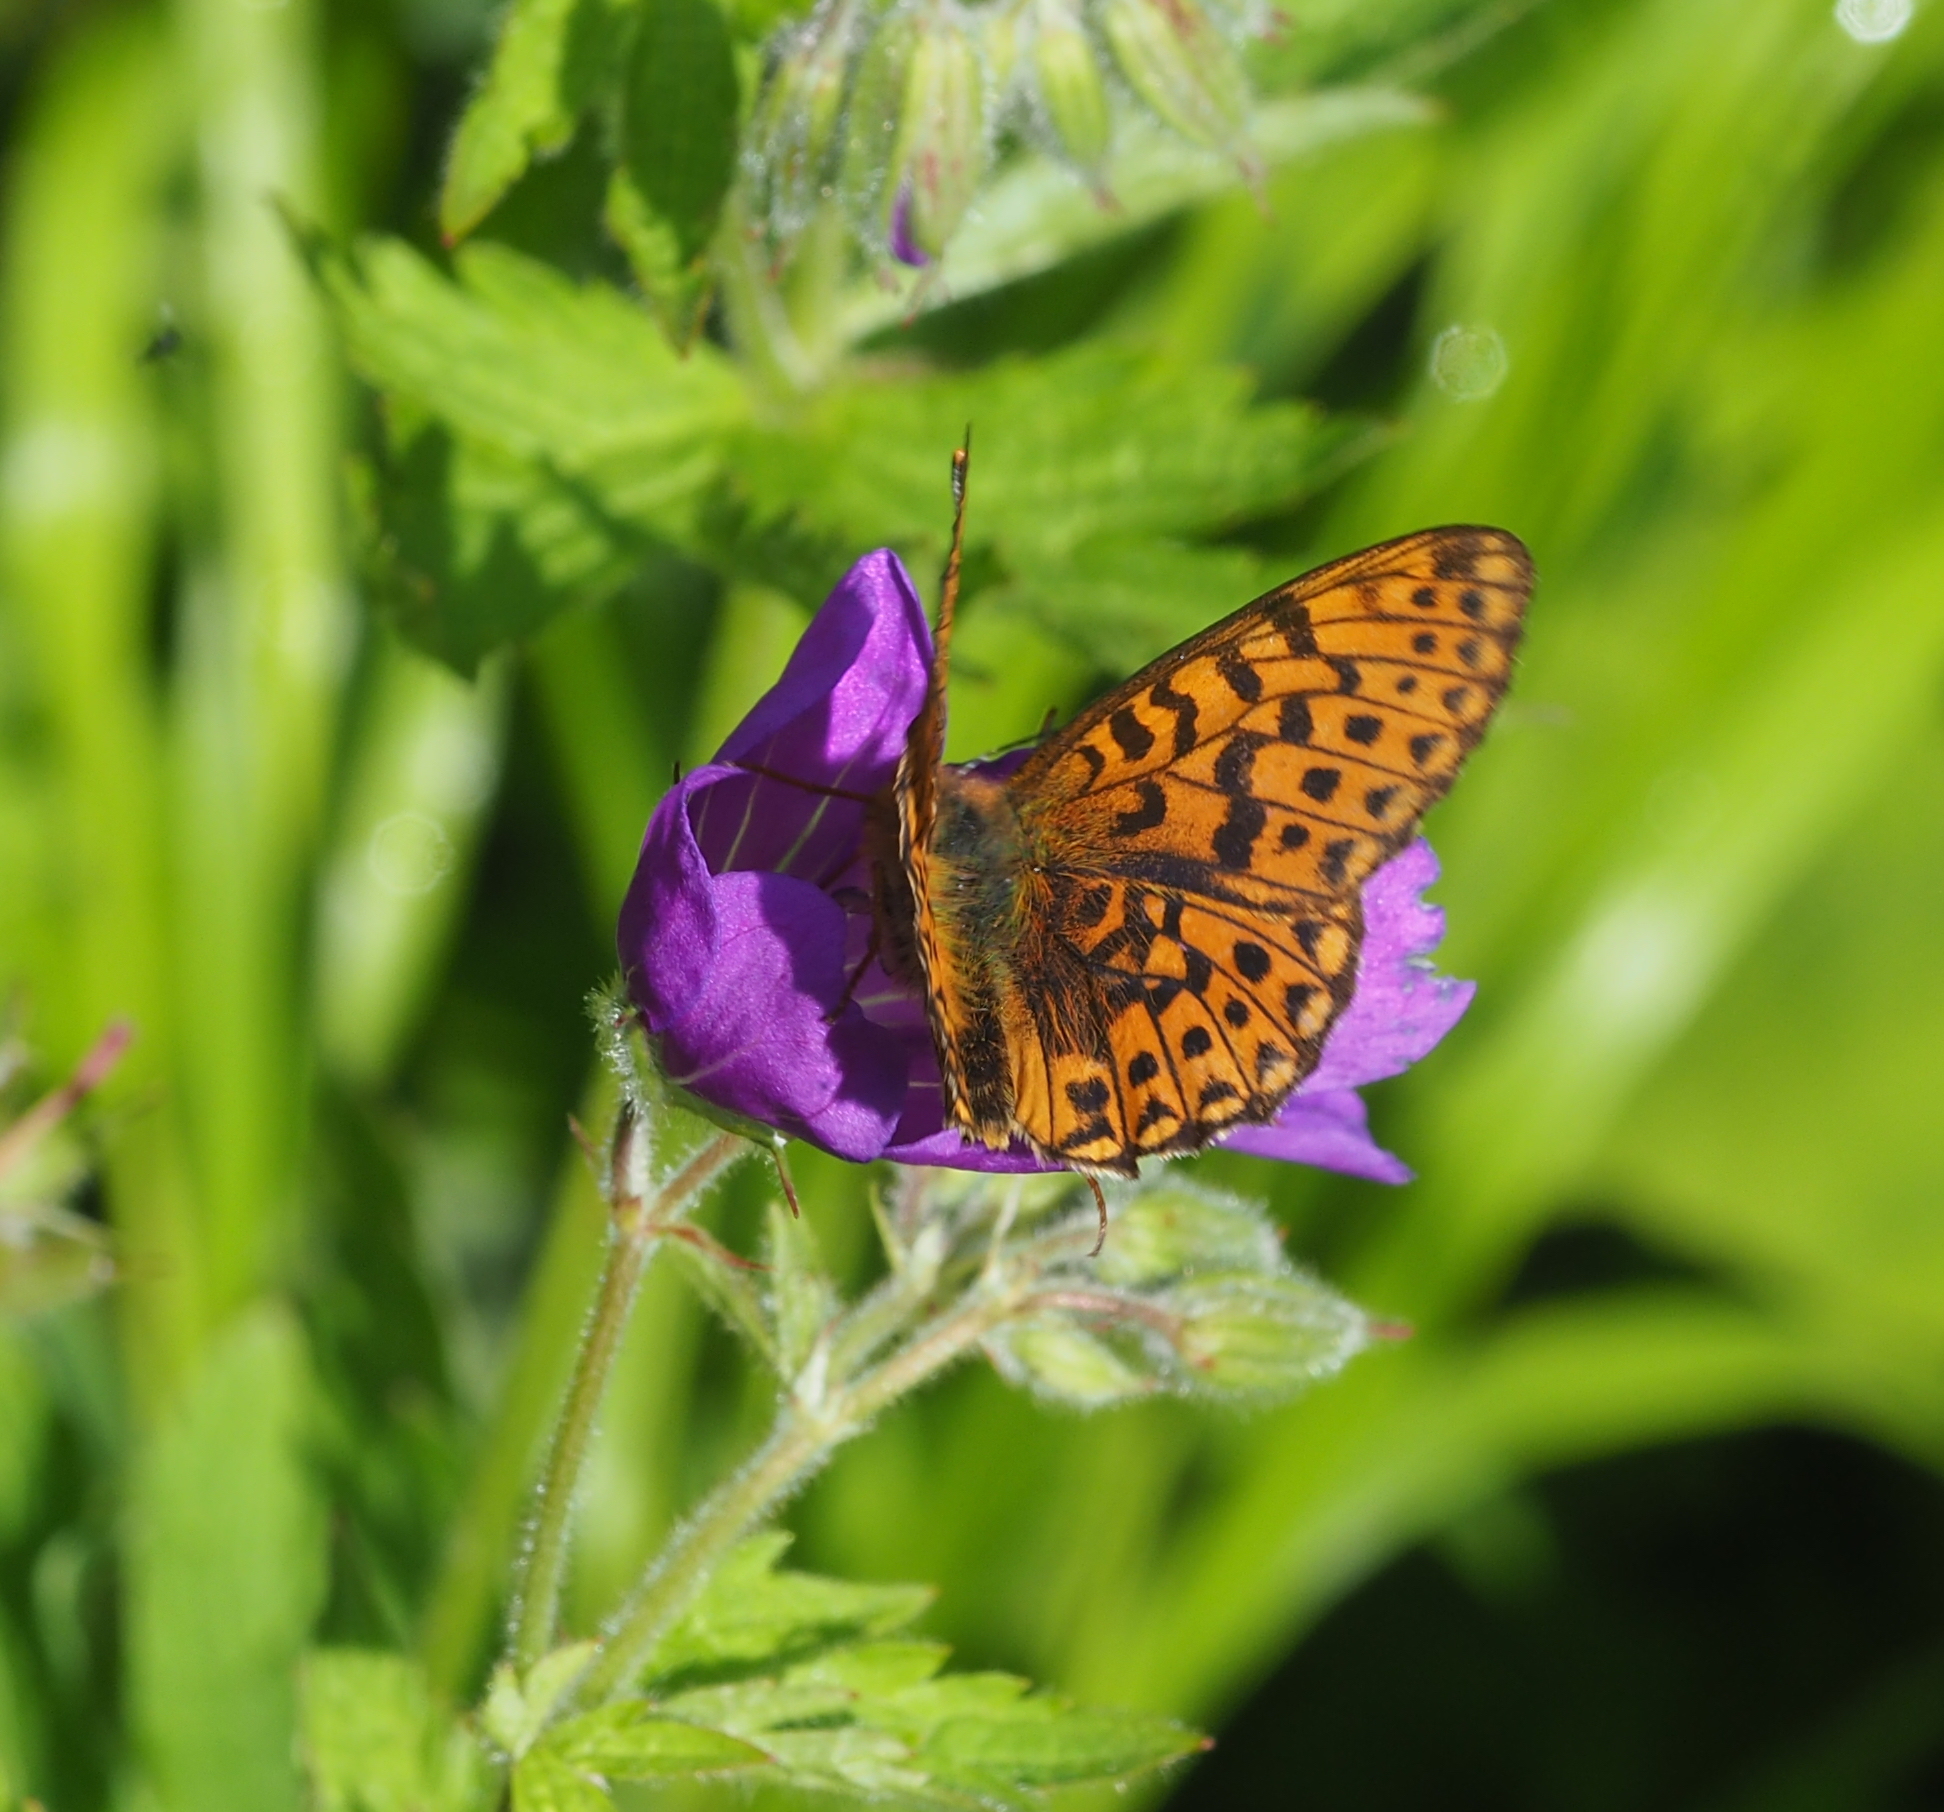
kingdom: Animalia
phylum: Arthropoda
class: Insecta
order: Lepidoptera
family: Nymphalidae
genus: Clossiana
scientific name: Clossiana euphrosyne
